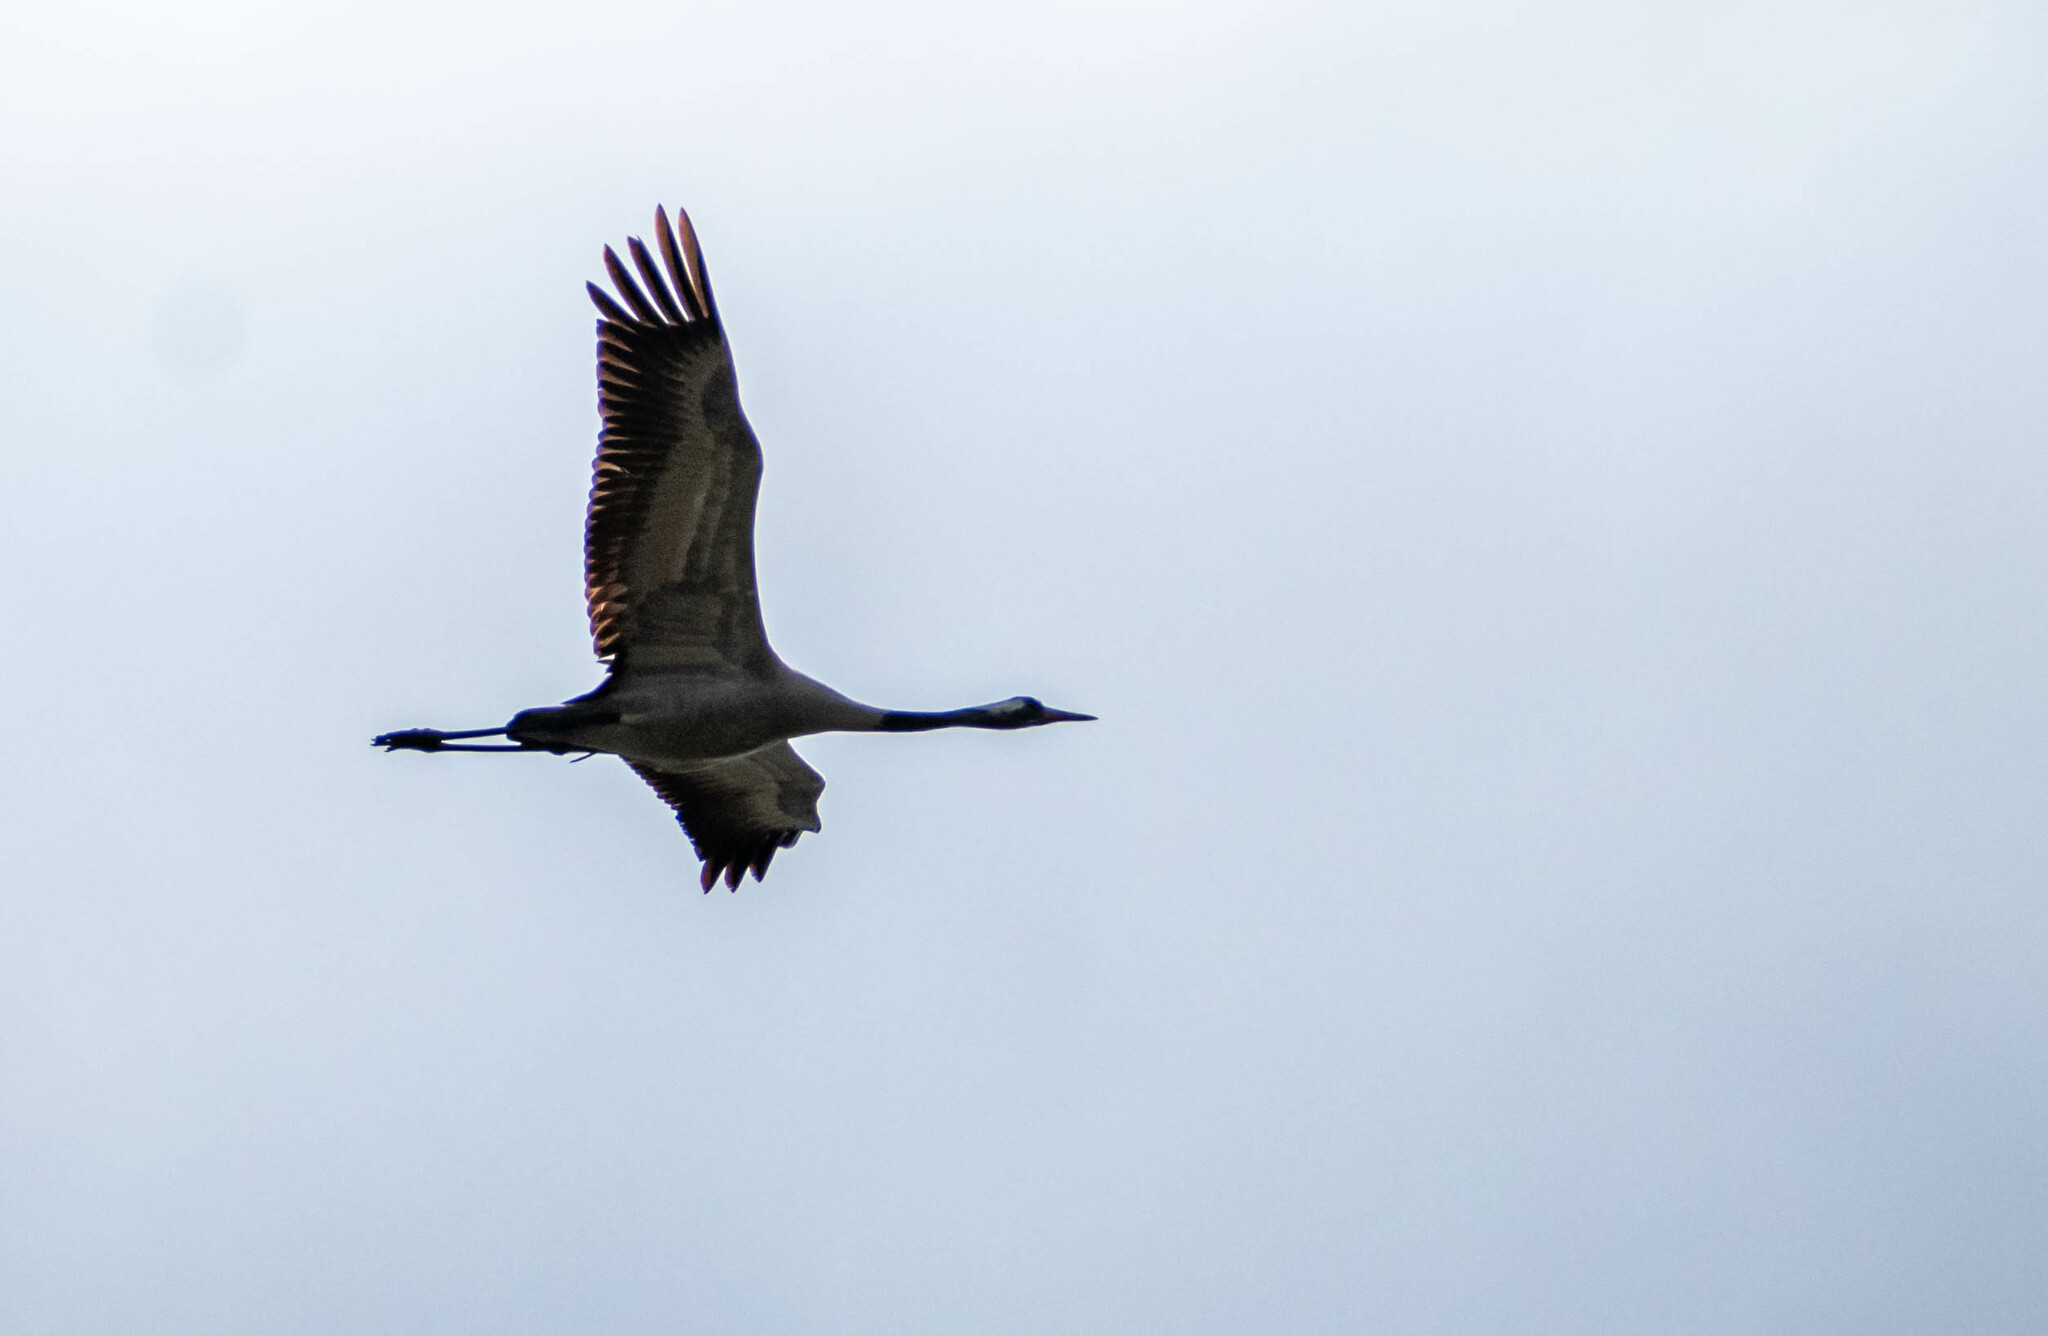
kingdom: Animalia
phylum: Chordata
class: Aves
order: Gruiformes
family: Gruidae
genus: Grus
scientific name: Grus grus
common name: Common crane
